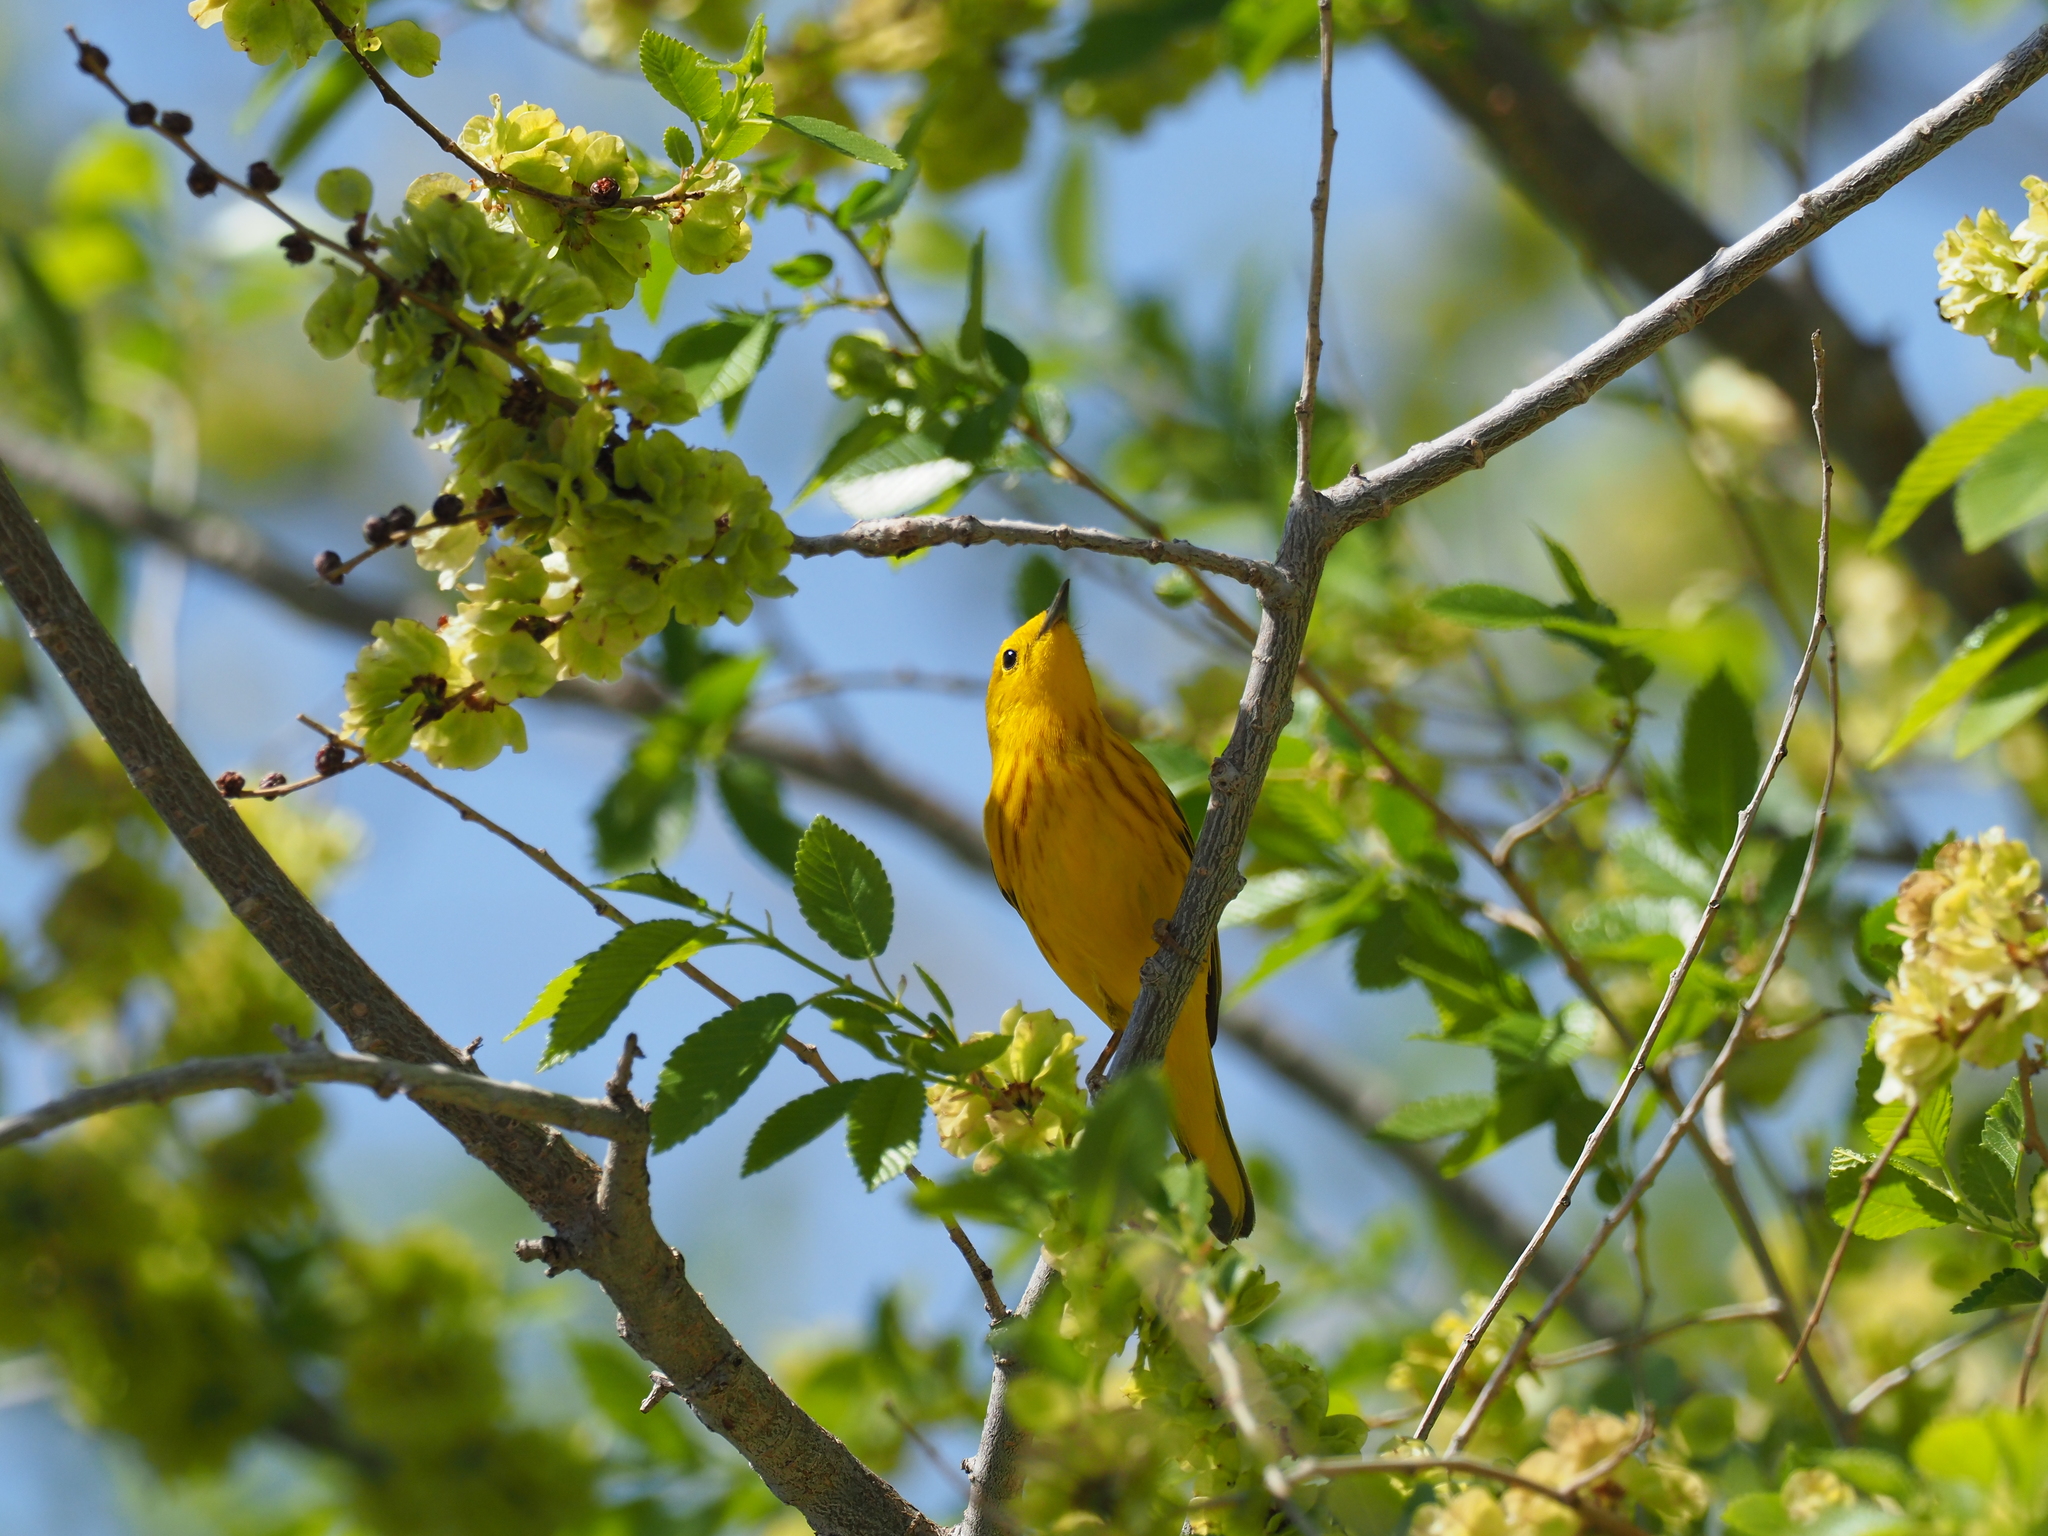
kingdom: Animalia
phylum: Chordata
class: Aves
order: Passeriformes
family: Parulidae
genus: Setophaga
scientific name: Setophaga petechia
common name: Yellow warbler
